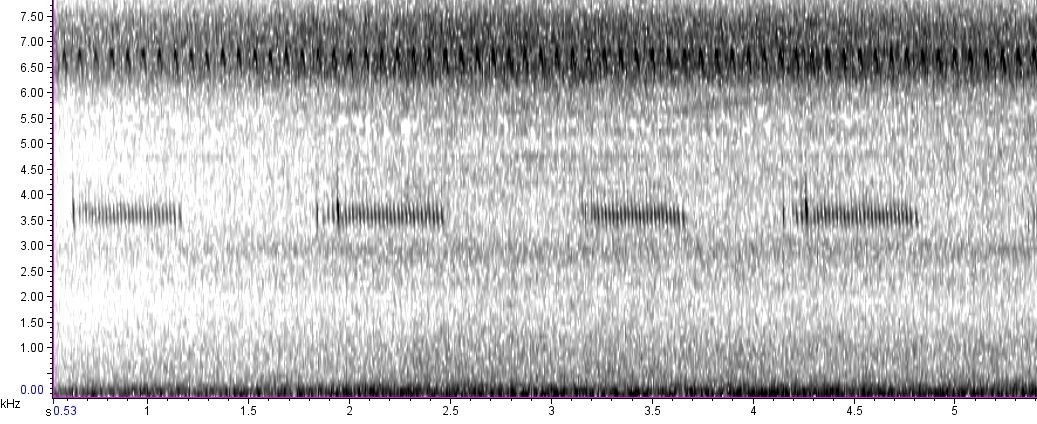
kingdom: Animalia
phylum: Arthropoda
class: Insecta
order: Orthoptera
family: Gryllidae
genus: Velarifictorus
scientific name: Velarifictorus micado
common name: Japanese burrowing cricket
